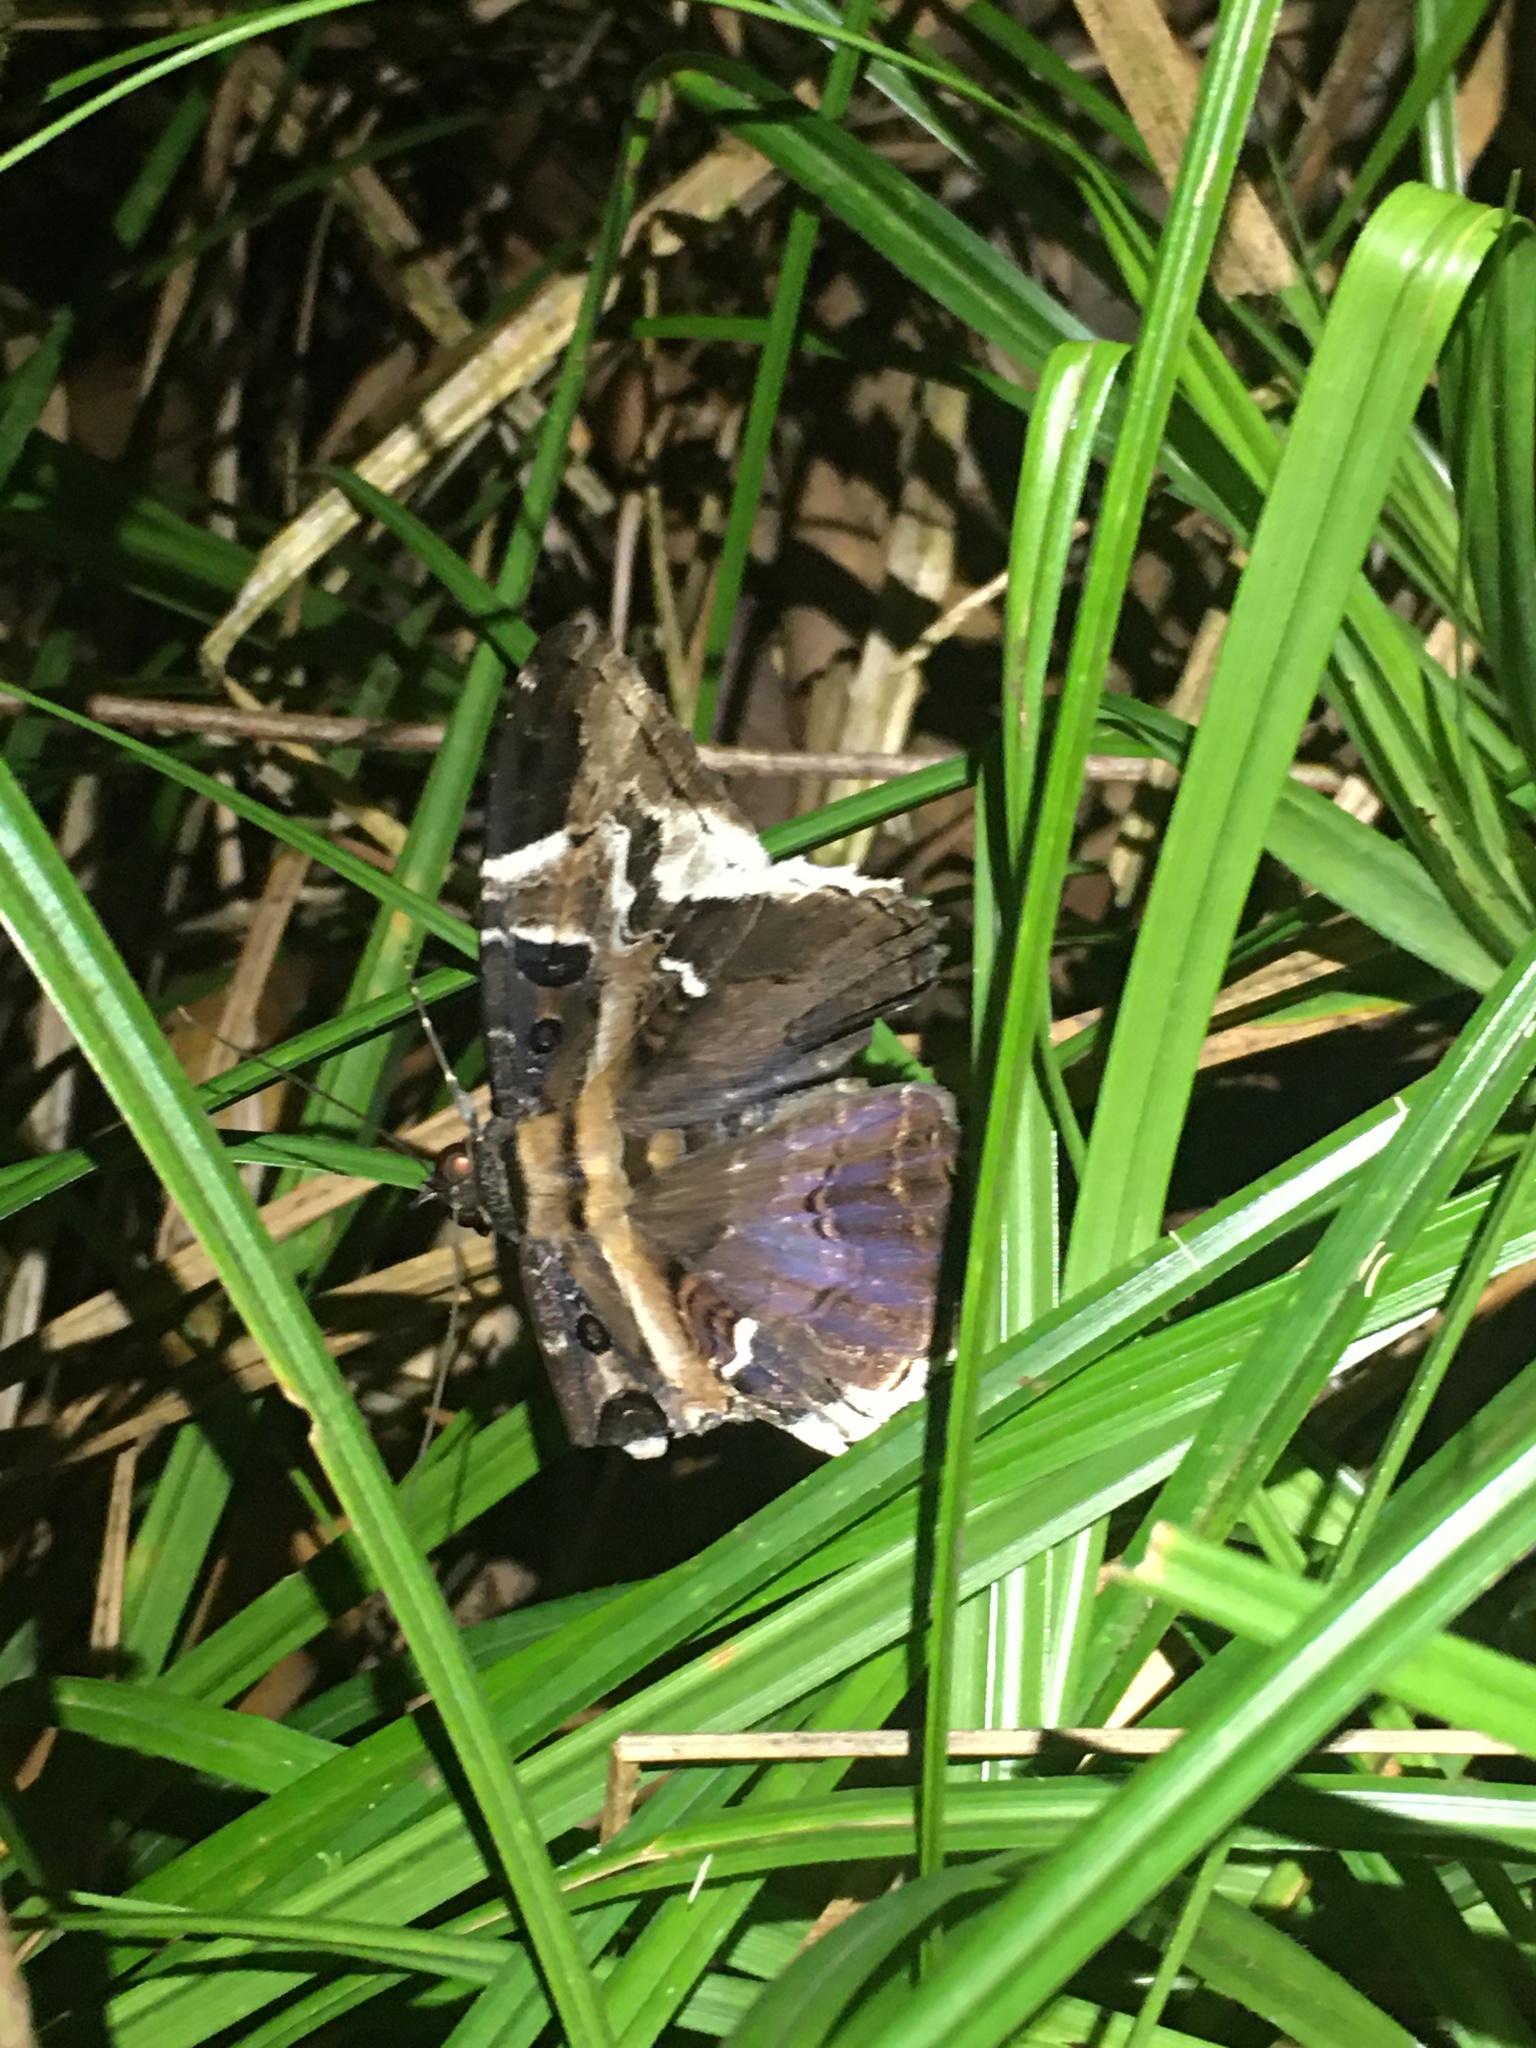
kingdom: Animalia
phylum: Arthropoda
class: Insecta
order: Lepidoptera
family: Erebidae
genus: Feigeria
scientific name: Feigeria herilia
